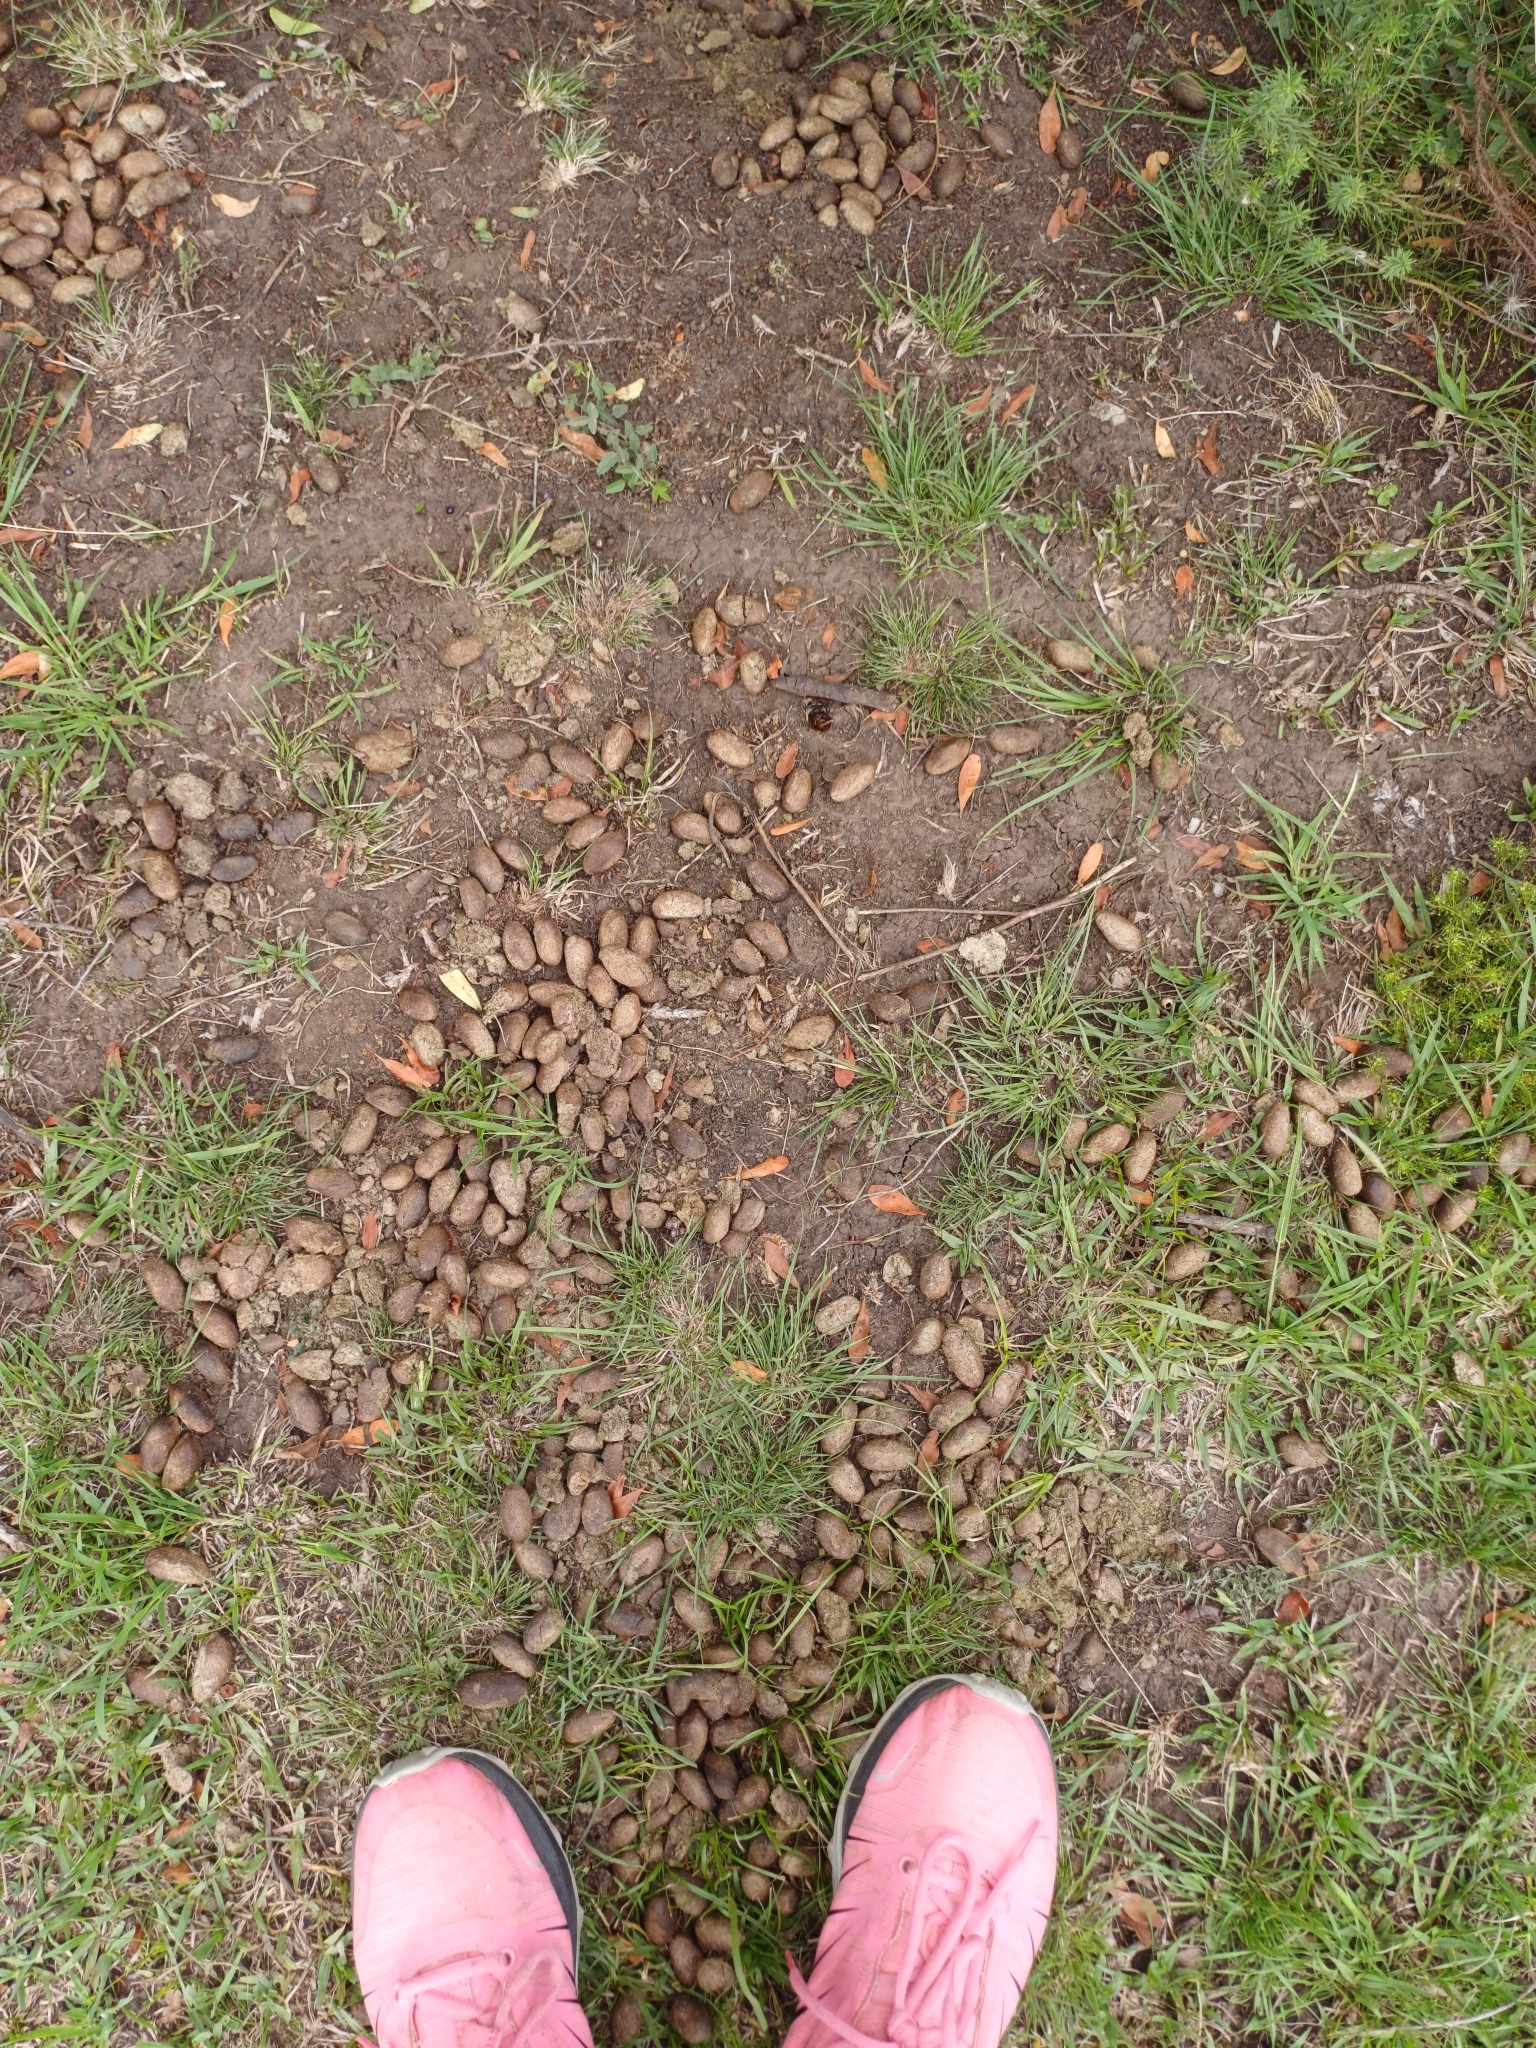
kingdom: Animalia
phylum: Chordata
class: Mammalia
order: Rodentia
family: Caviidae
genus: Hydrochoerus
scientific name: Hydrochoerus hydrochaeris
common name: Capybara
